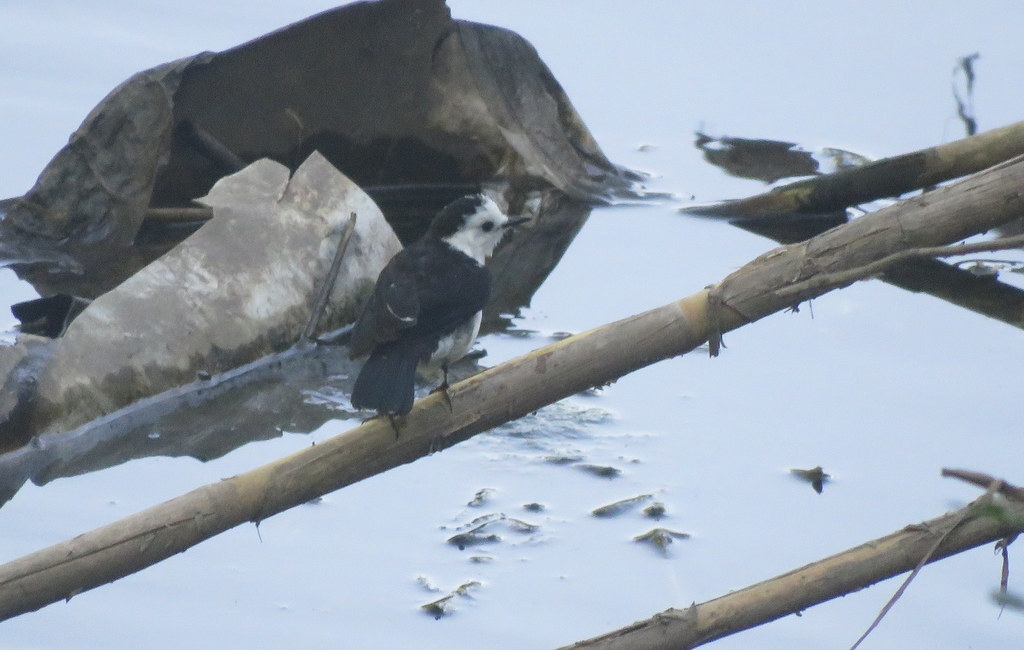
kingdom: Animalia
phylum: Chordata
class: Aves
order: Passeriformes
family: Tyrannidae
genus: Fluvicola
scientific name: Fluvicola pica
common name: Pied water-tyrant
